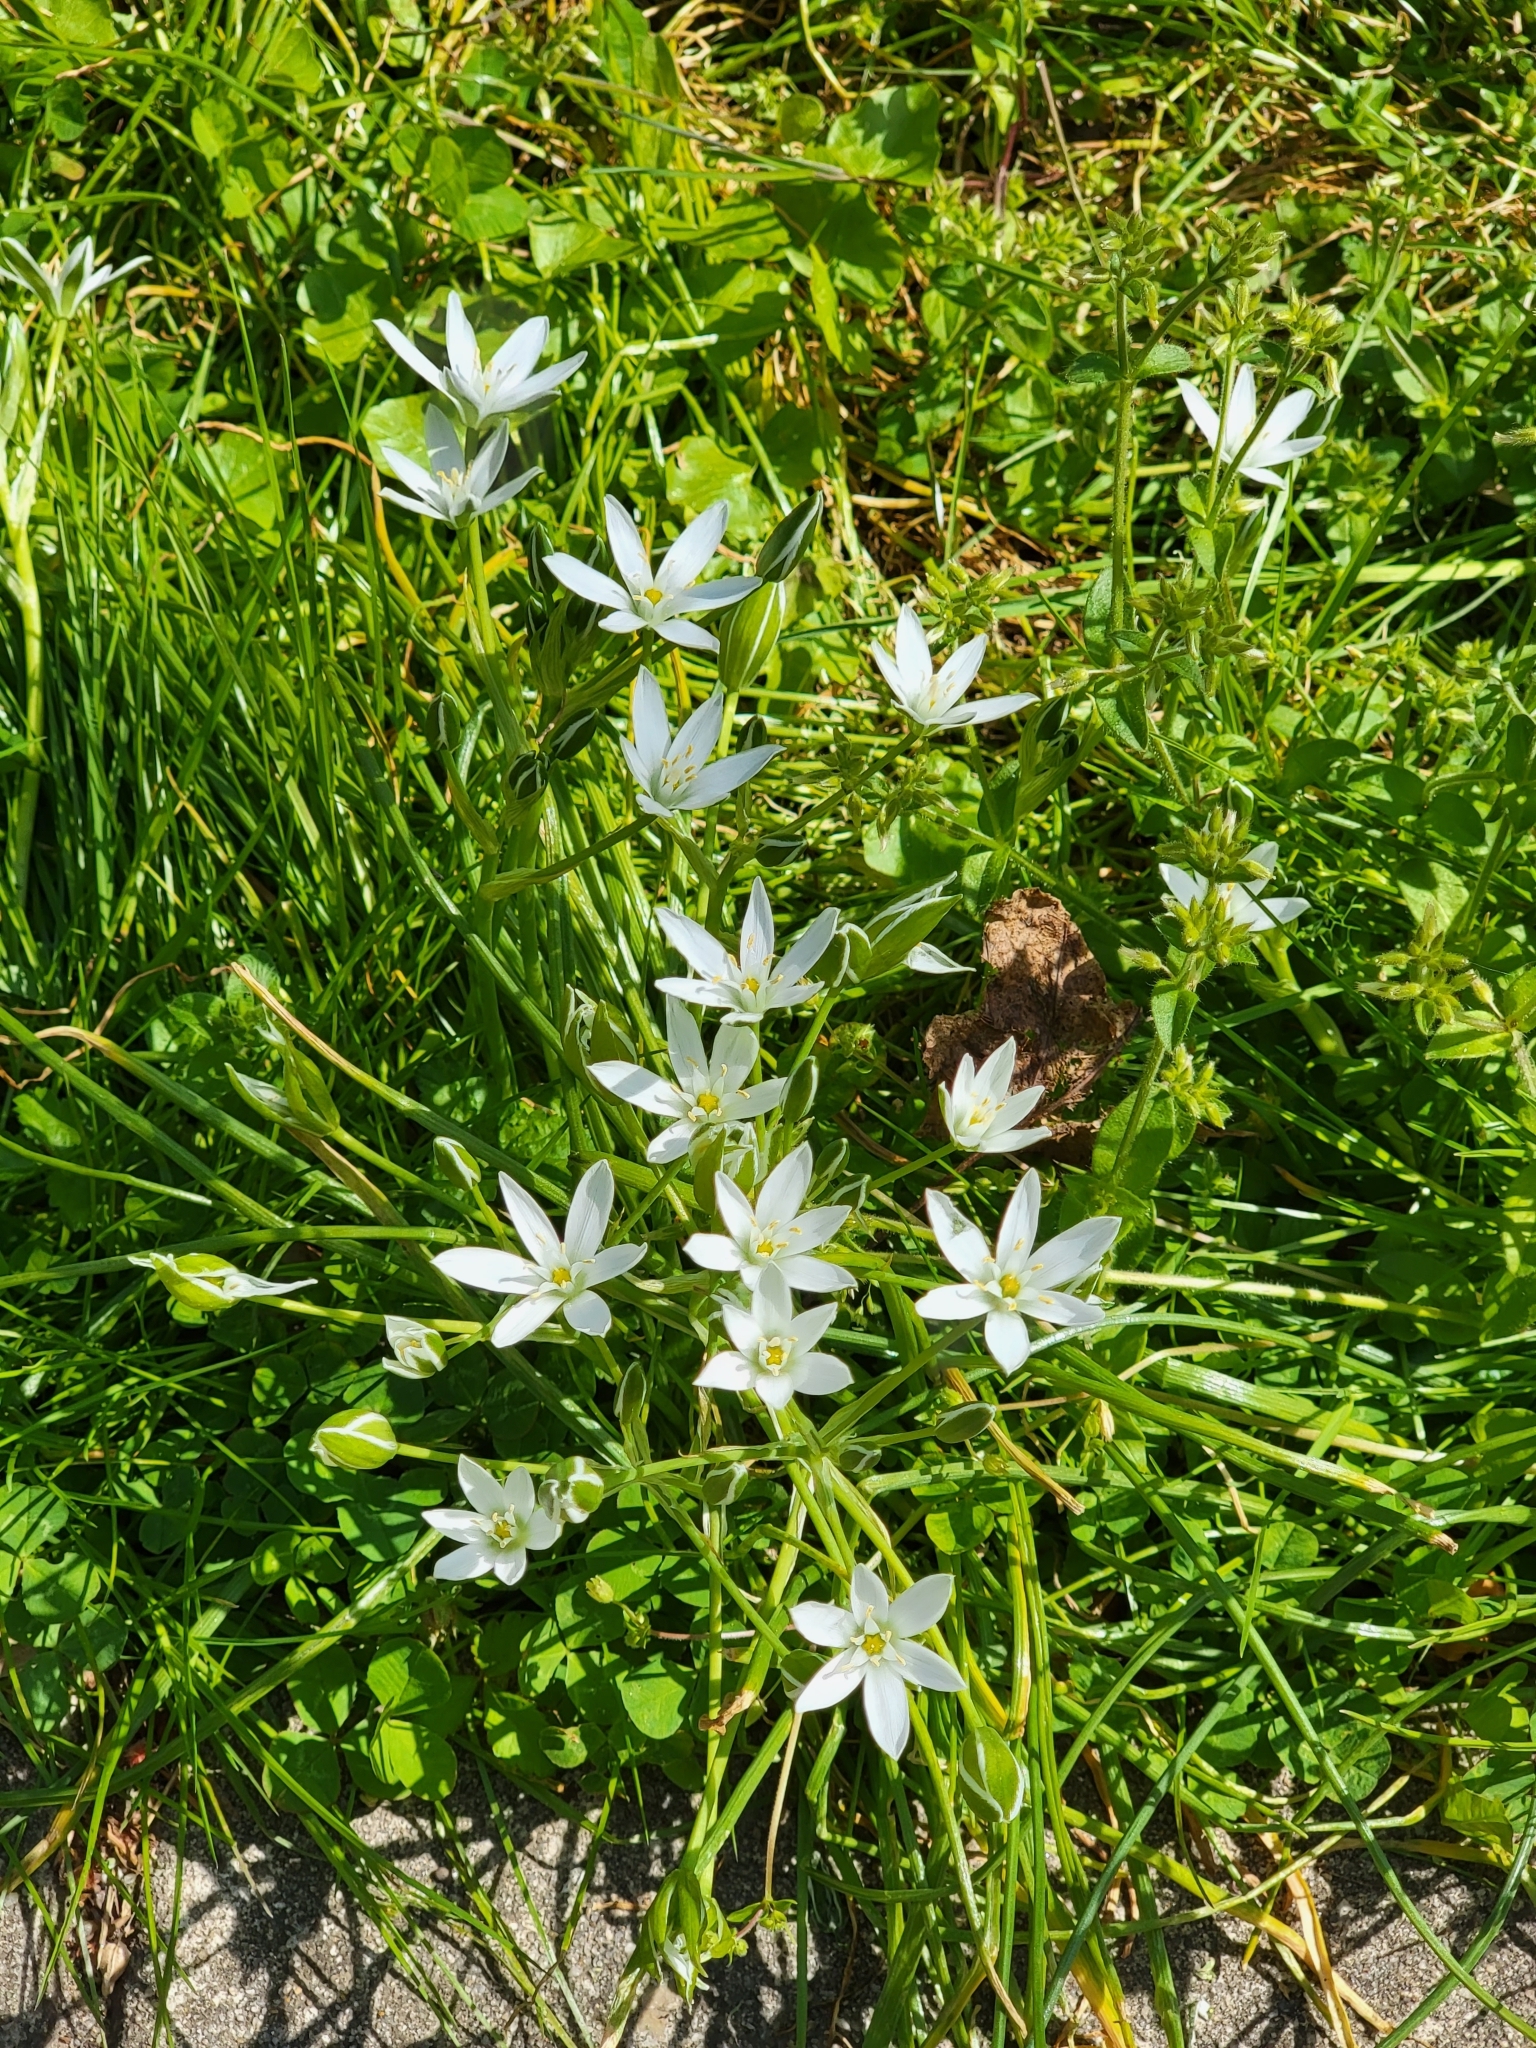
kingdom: Plantae
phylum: Tracheophyta
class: Liliopsida
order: Asparagales
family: Asparagaceae
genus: Ornithogalum
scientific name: Ornithogalum umbellatum
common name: Garden star-of-bethlehem
